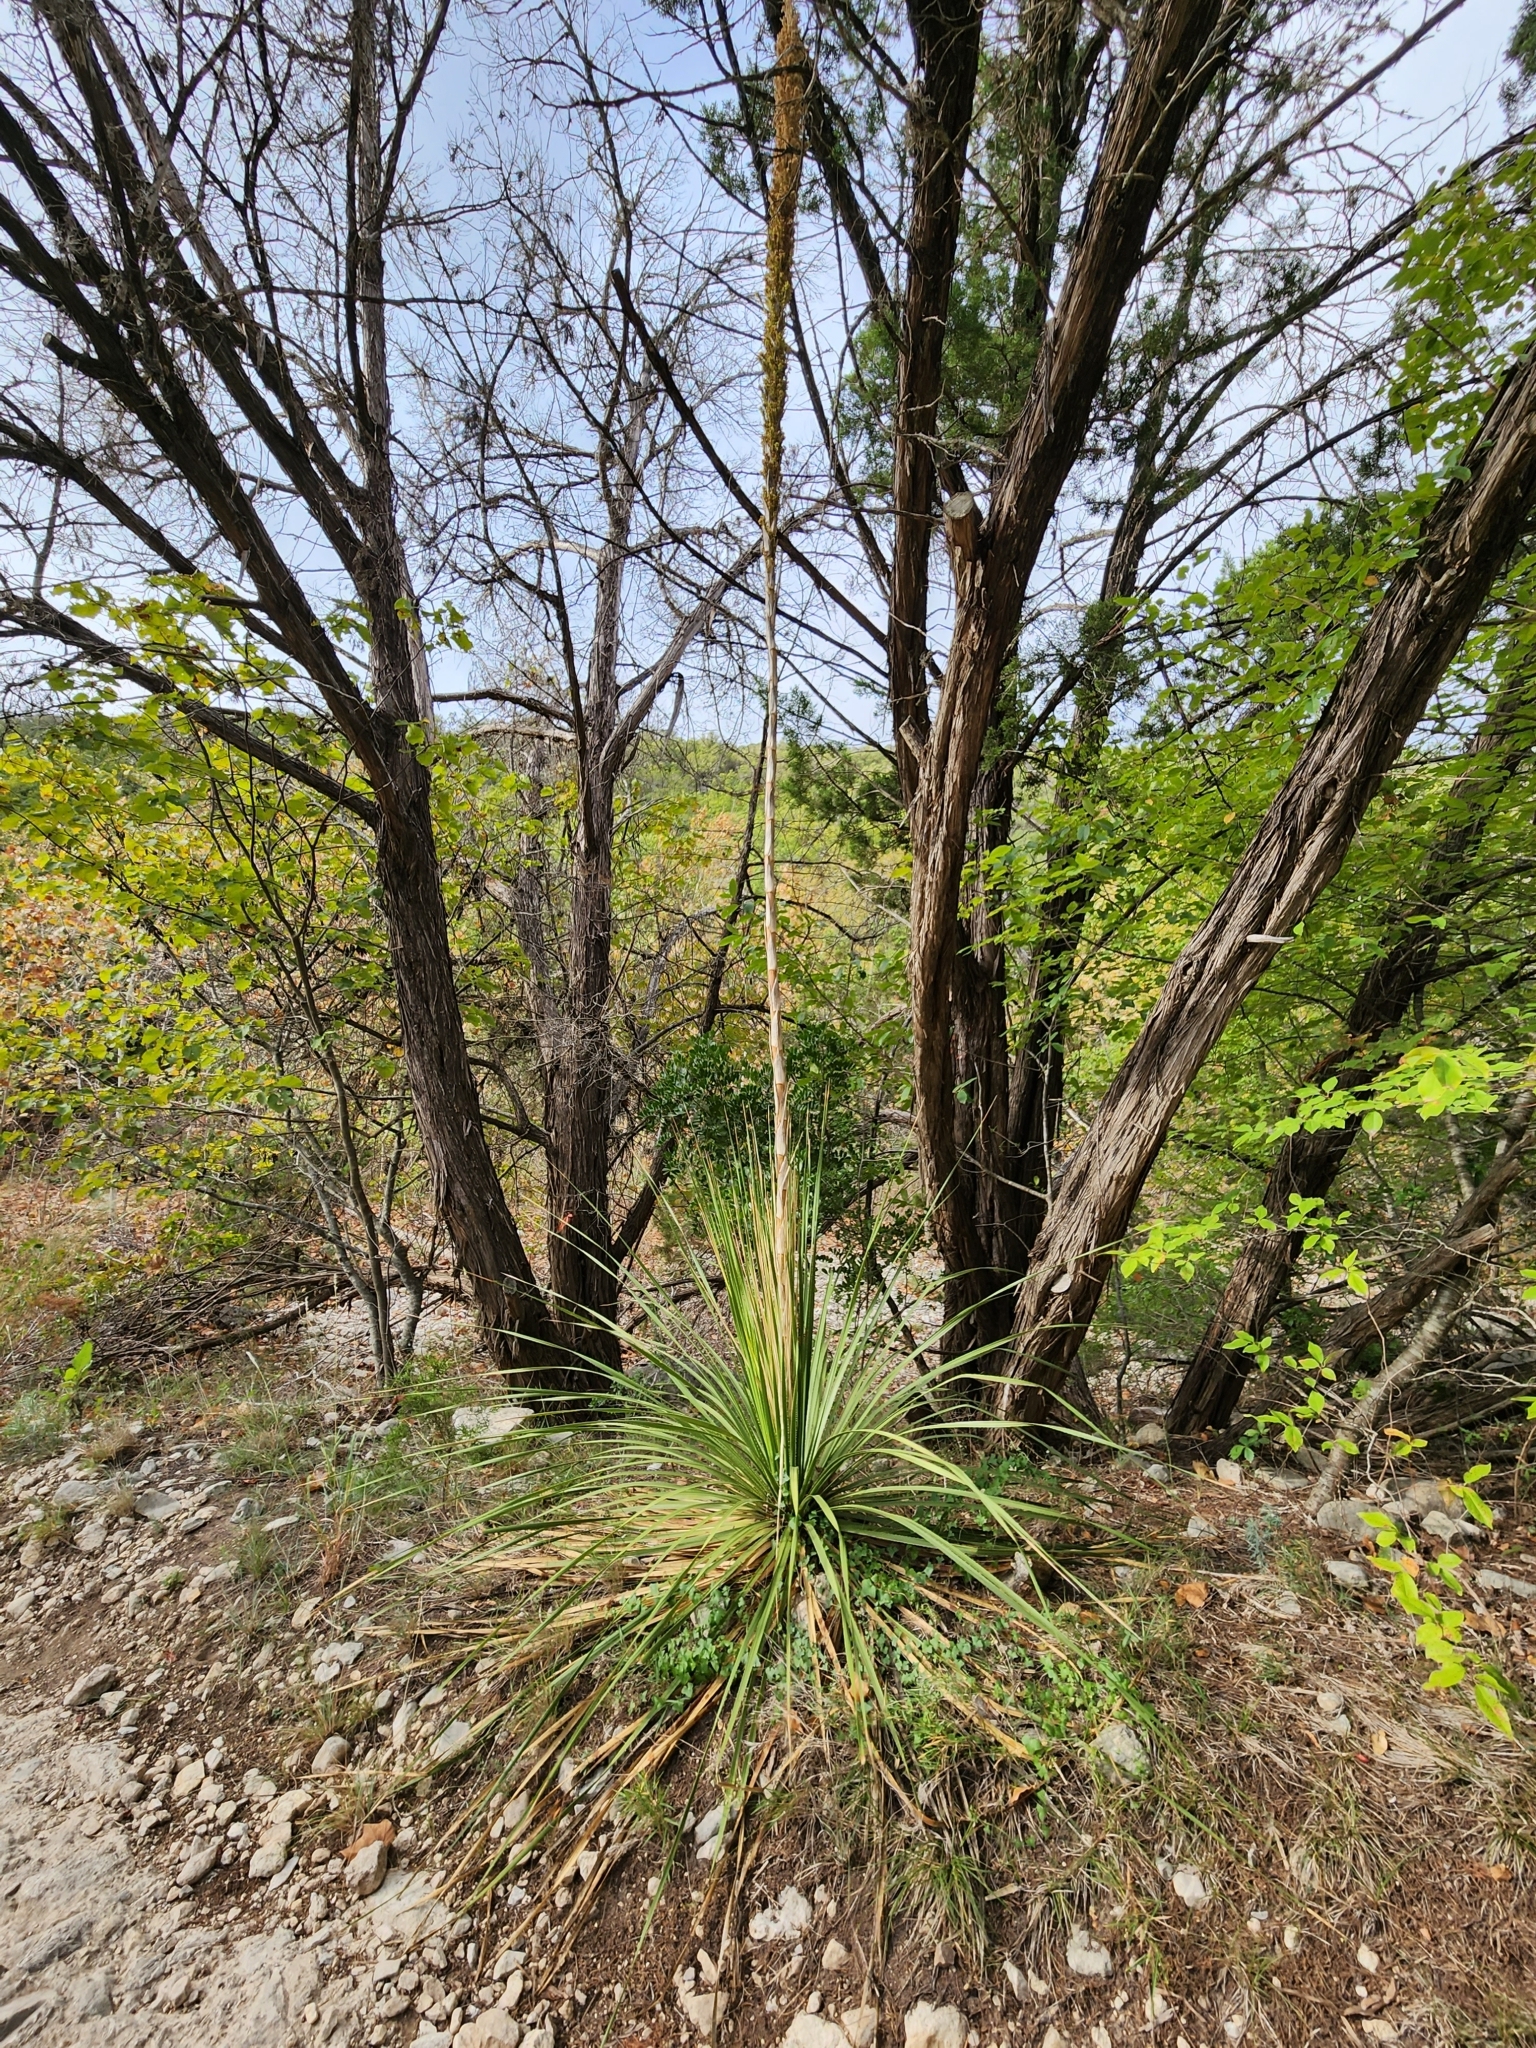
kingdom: Plantae
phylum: Tracheophyta
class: Liliopsida
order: Asparagales
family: Asparagaceae
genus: Dasylirion
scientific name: Dasylirion texanum
